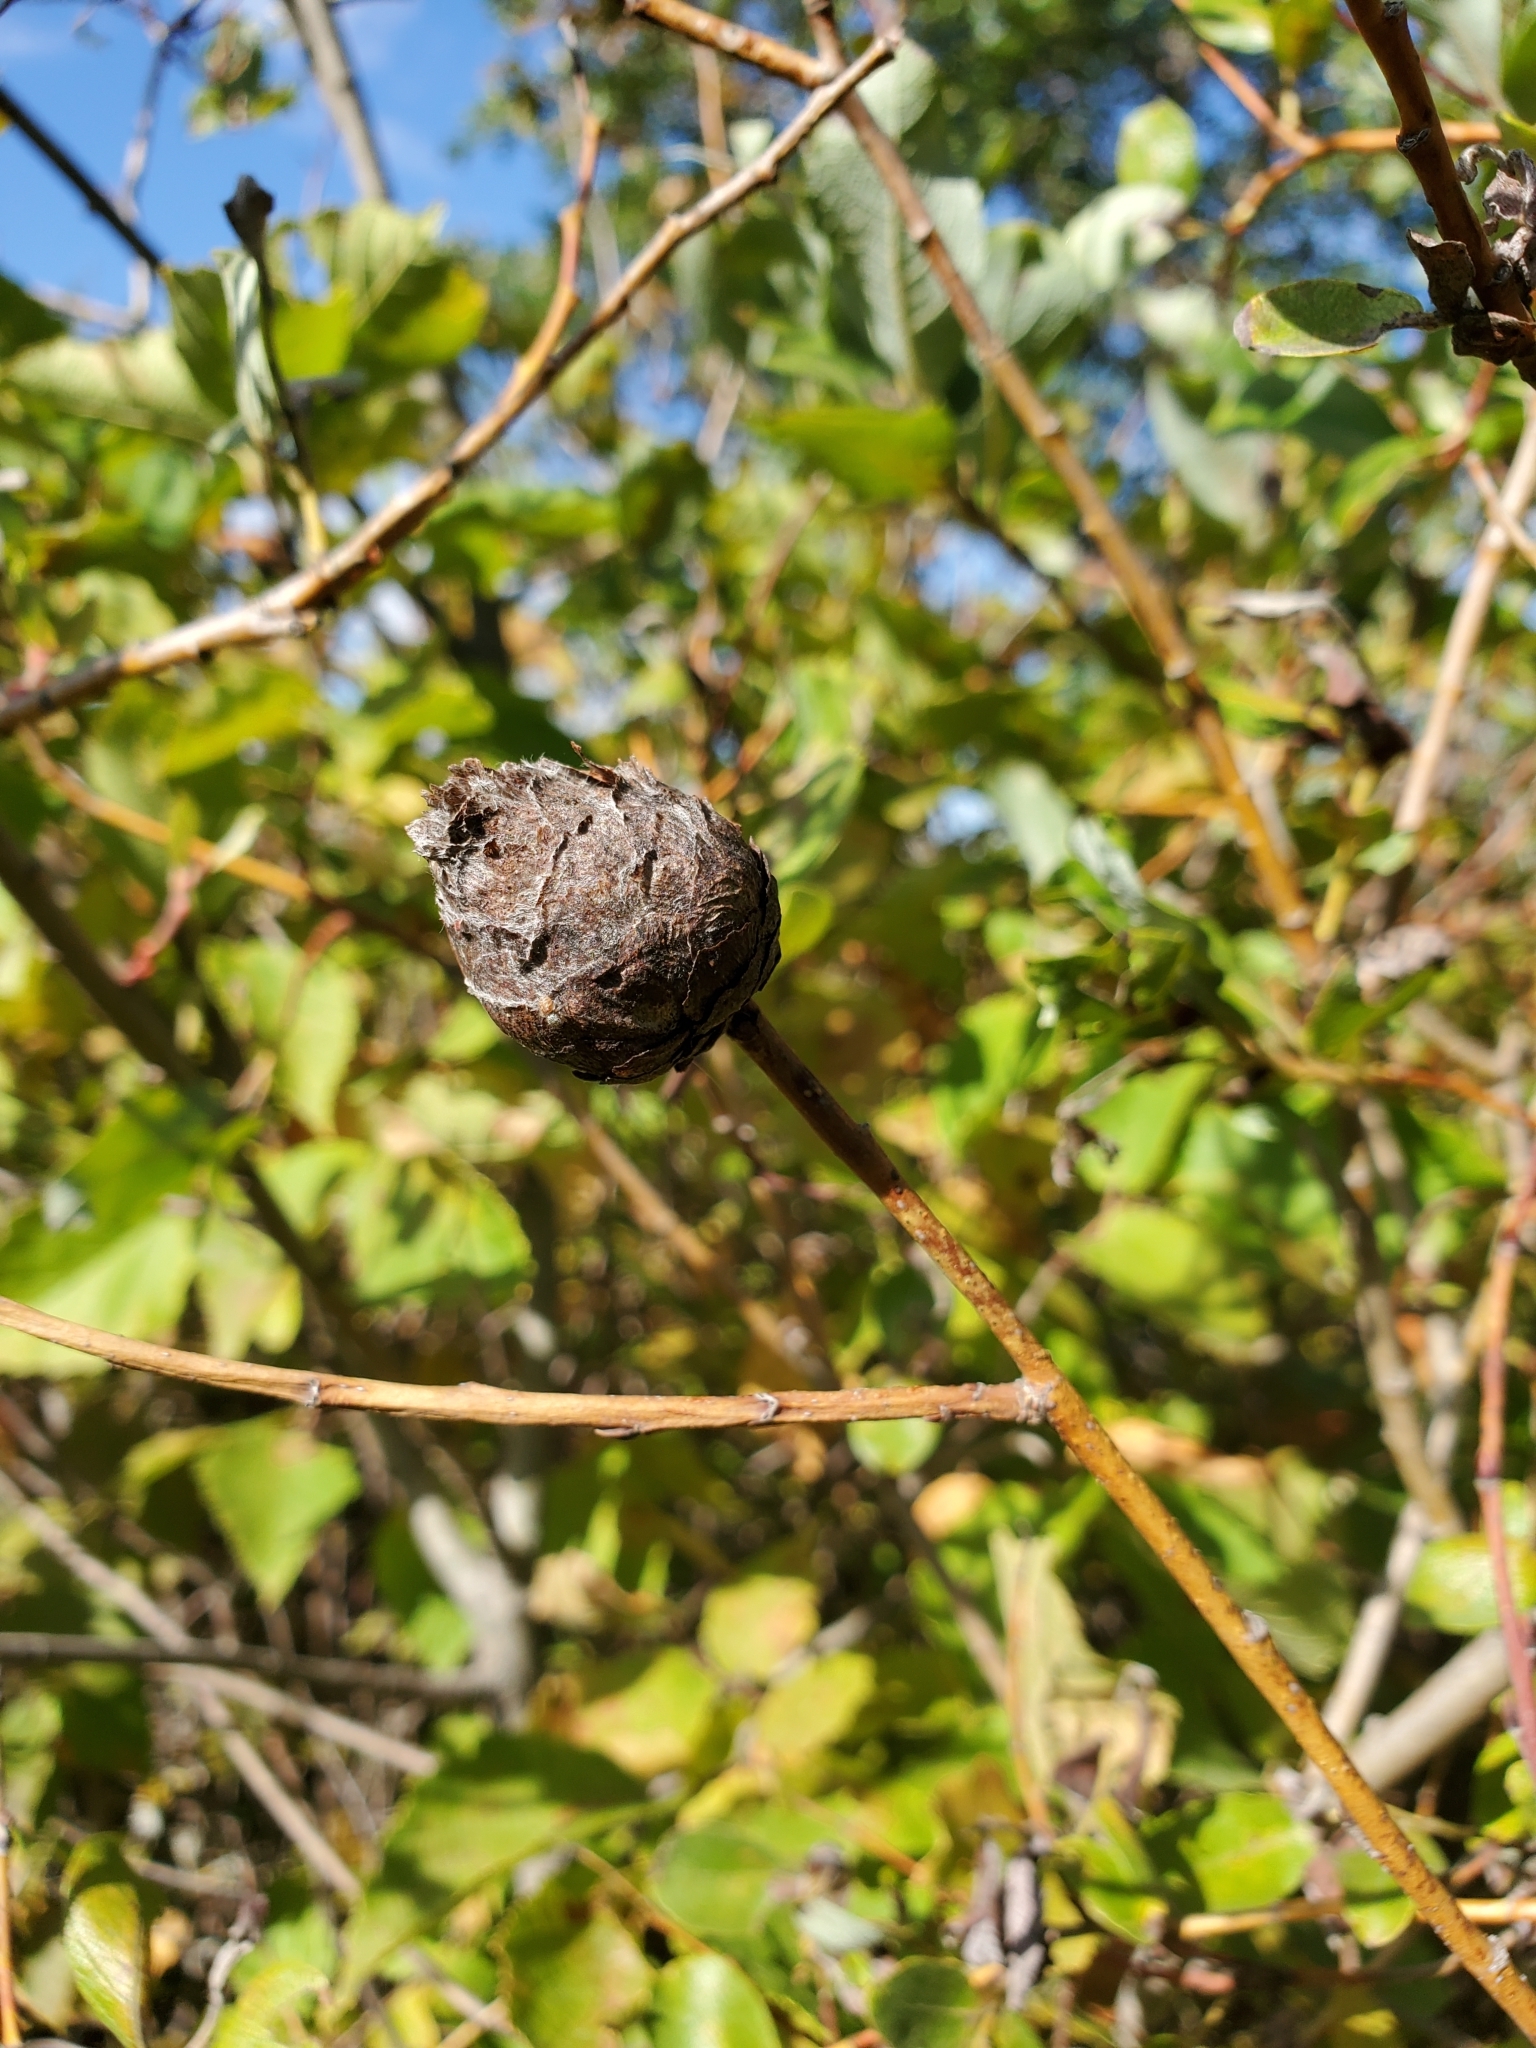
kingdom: Animalia
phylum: Arthropoda
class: Insecta
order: Diptera
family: Cecidomyiidae
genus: Rabdophaga
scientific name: Rabdophaga strobiloides
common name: Willow pinecone gall midge
